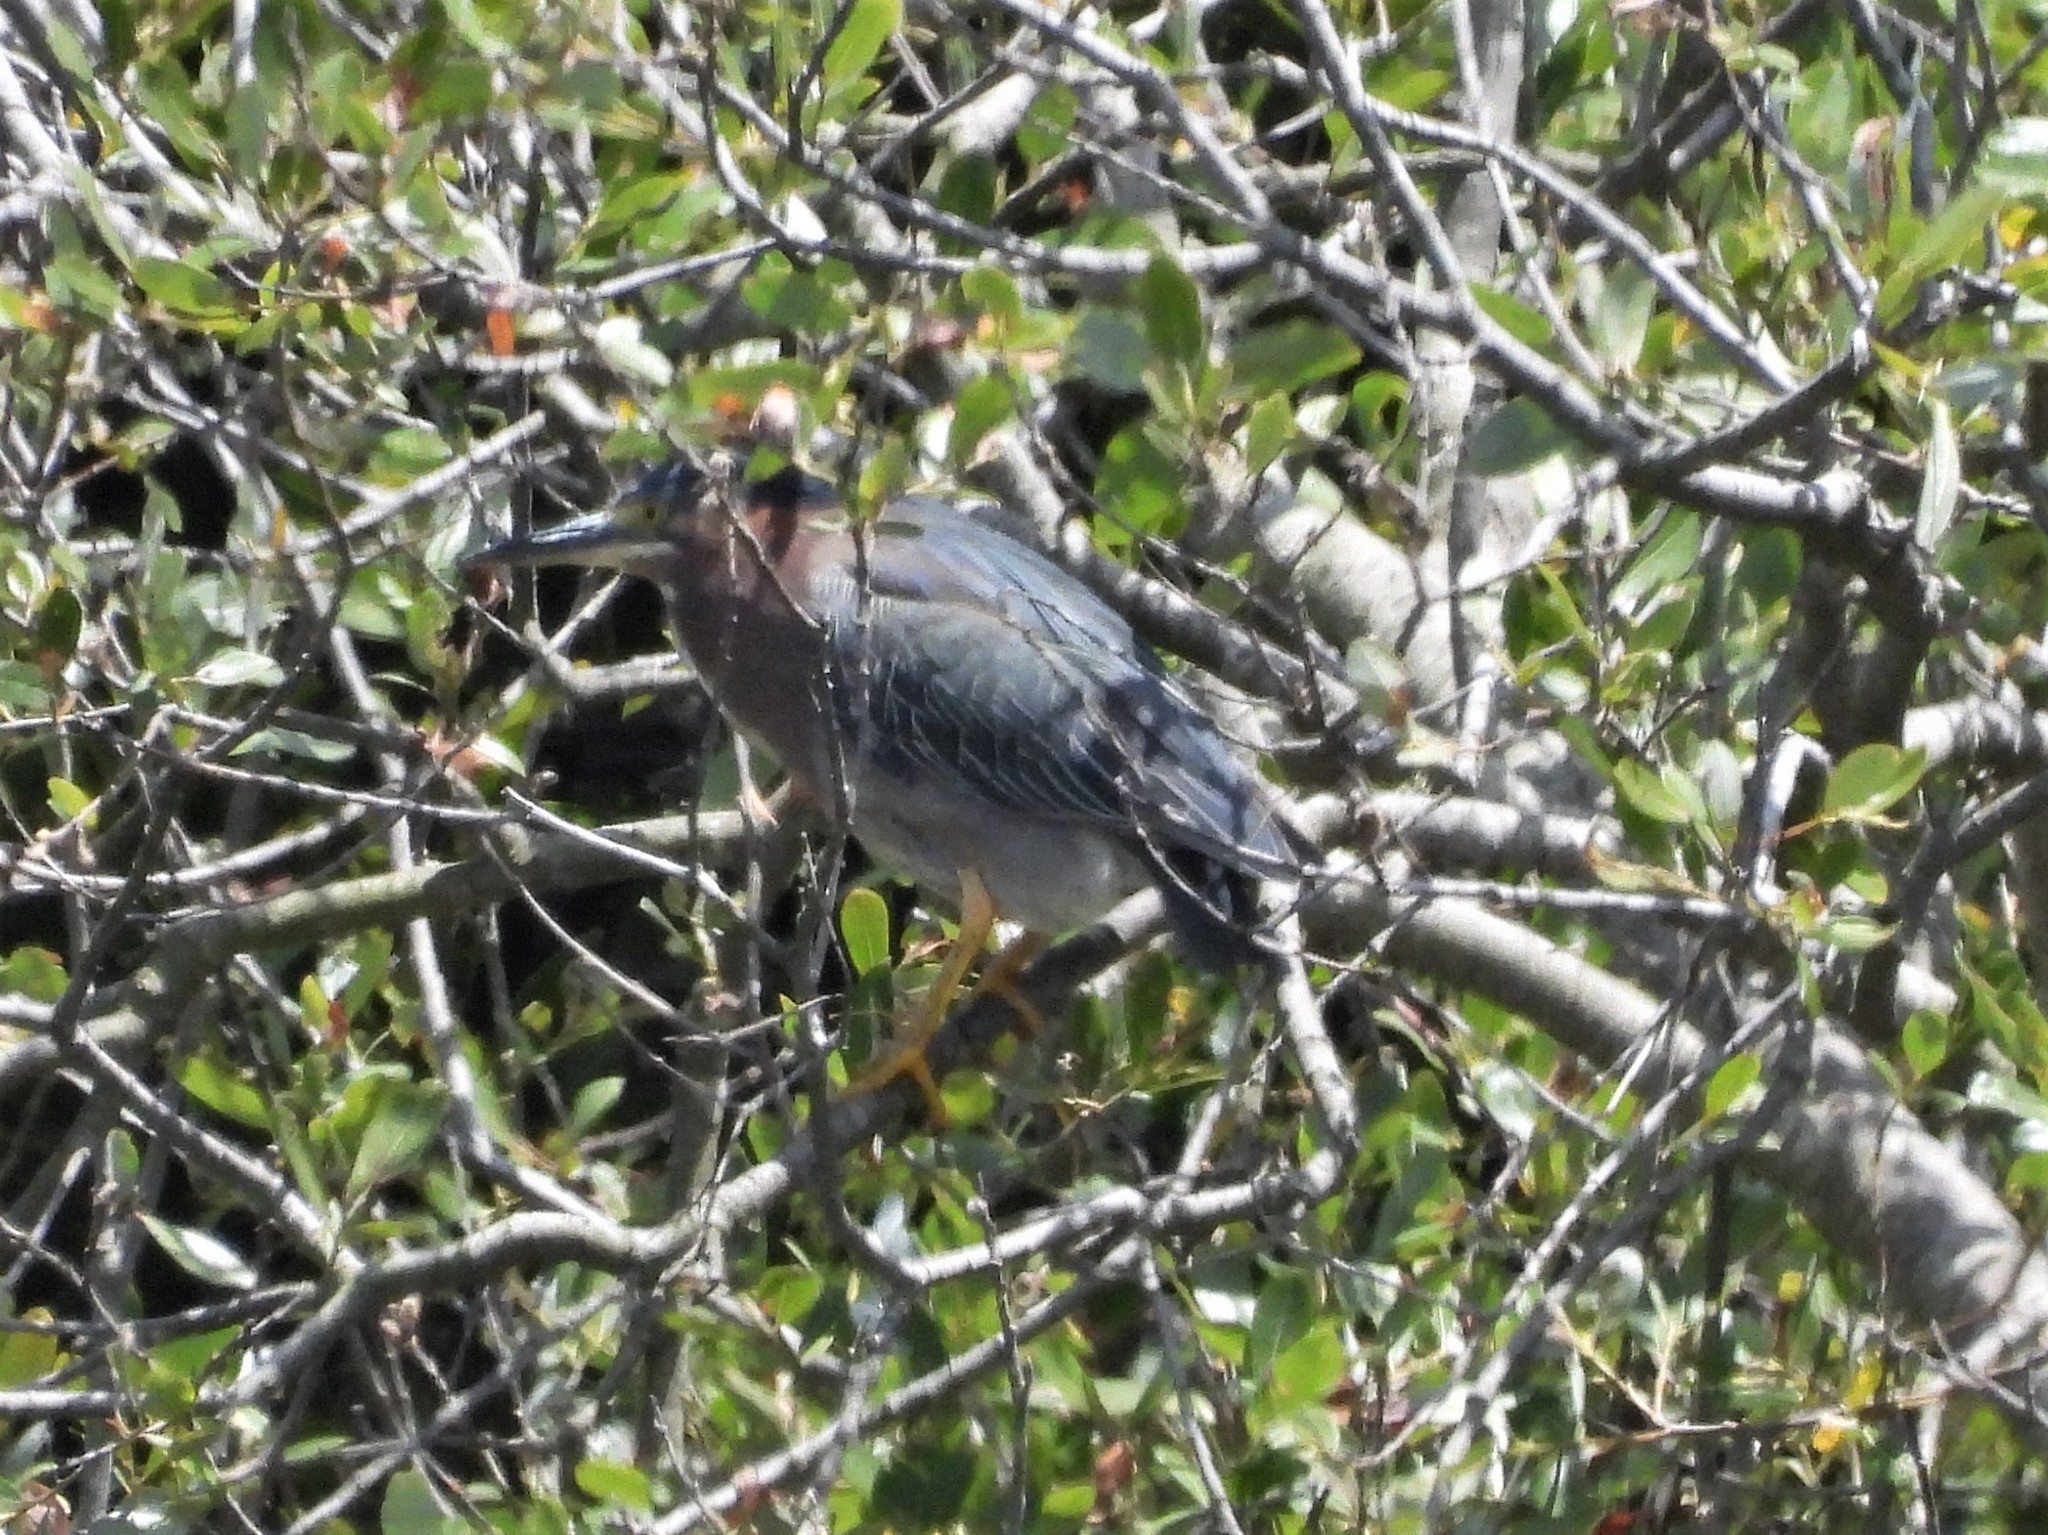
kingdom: Animalia
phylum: Chordata
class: Aves
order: Pelecaniformes
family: Ardeidae
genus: Butorides
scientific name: Butorides virescens
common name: Green heron
